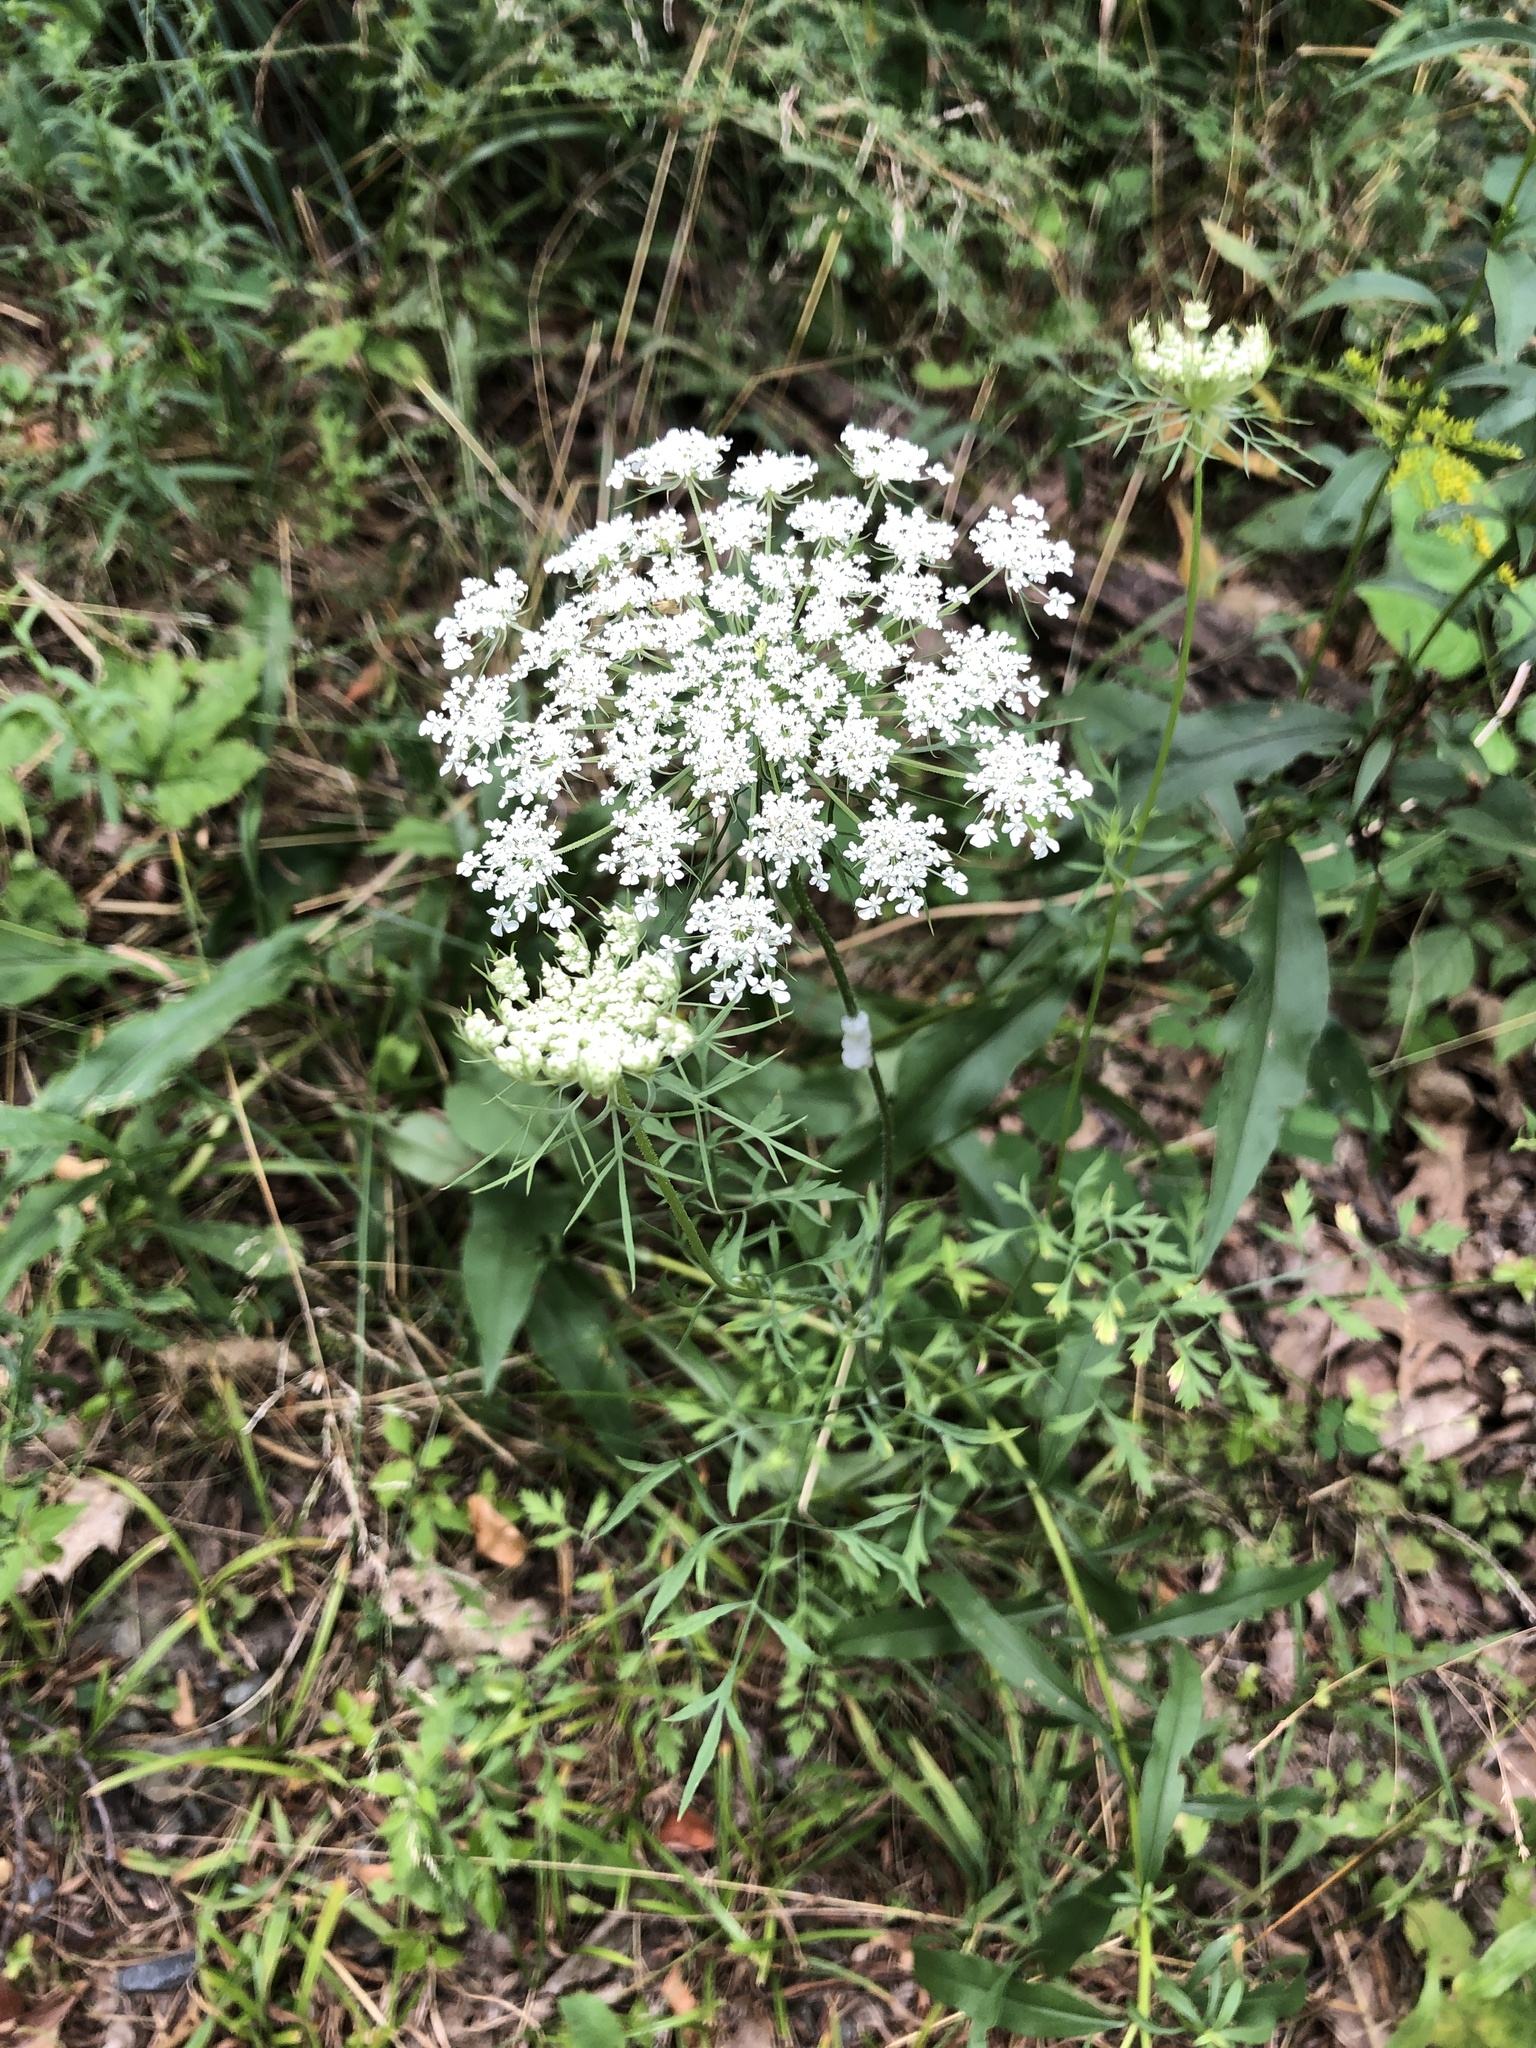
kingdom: Plantae
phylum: Tracheophyta
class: Magnoliopsida
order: Apiales
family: Apiaceae
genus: Daucus
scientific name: Daucus carota
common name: Wild carrot
